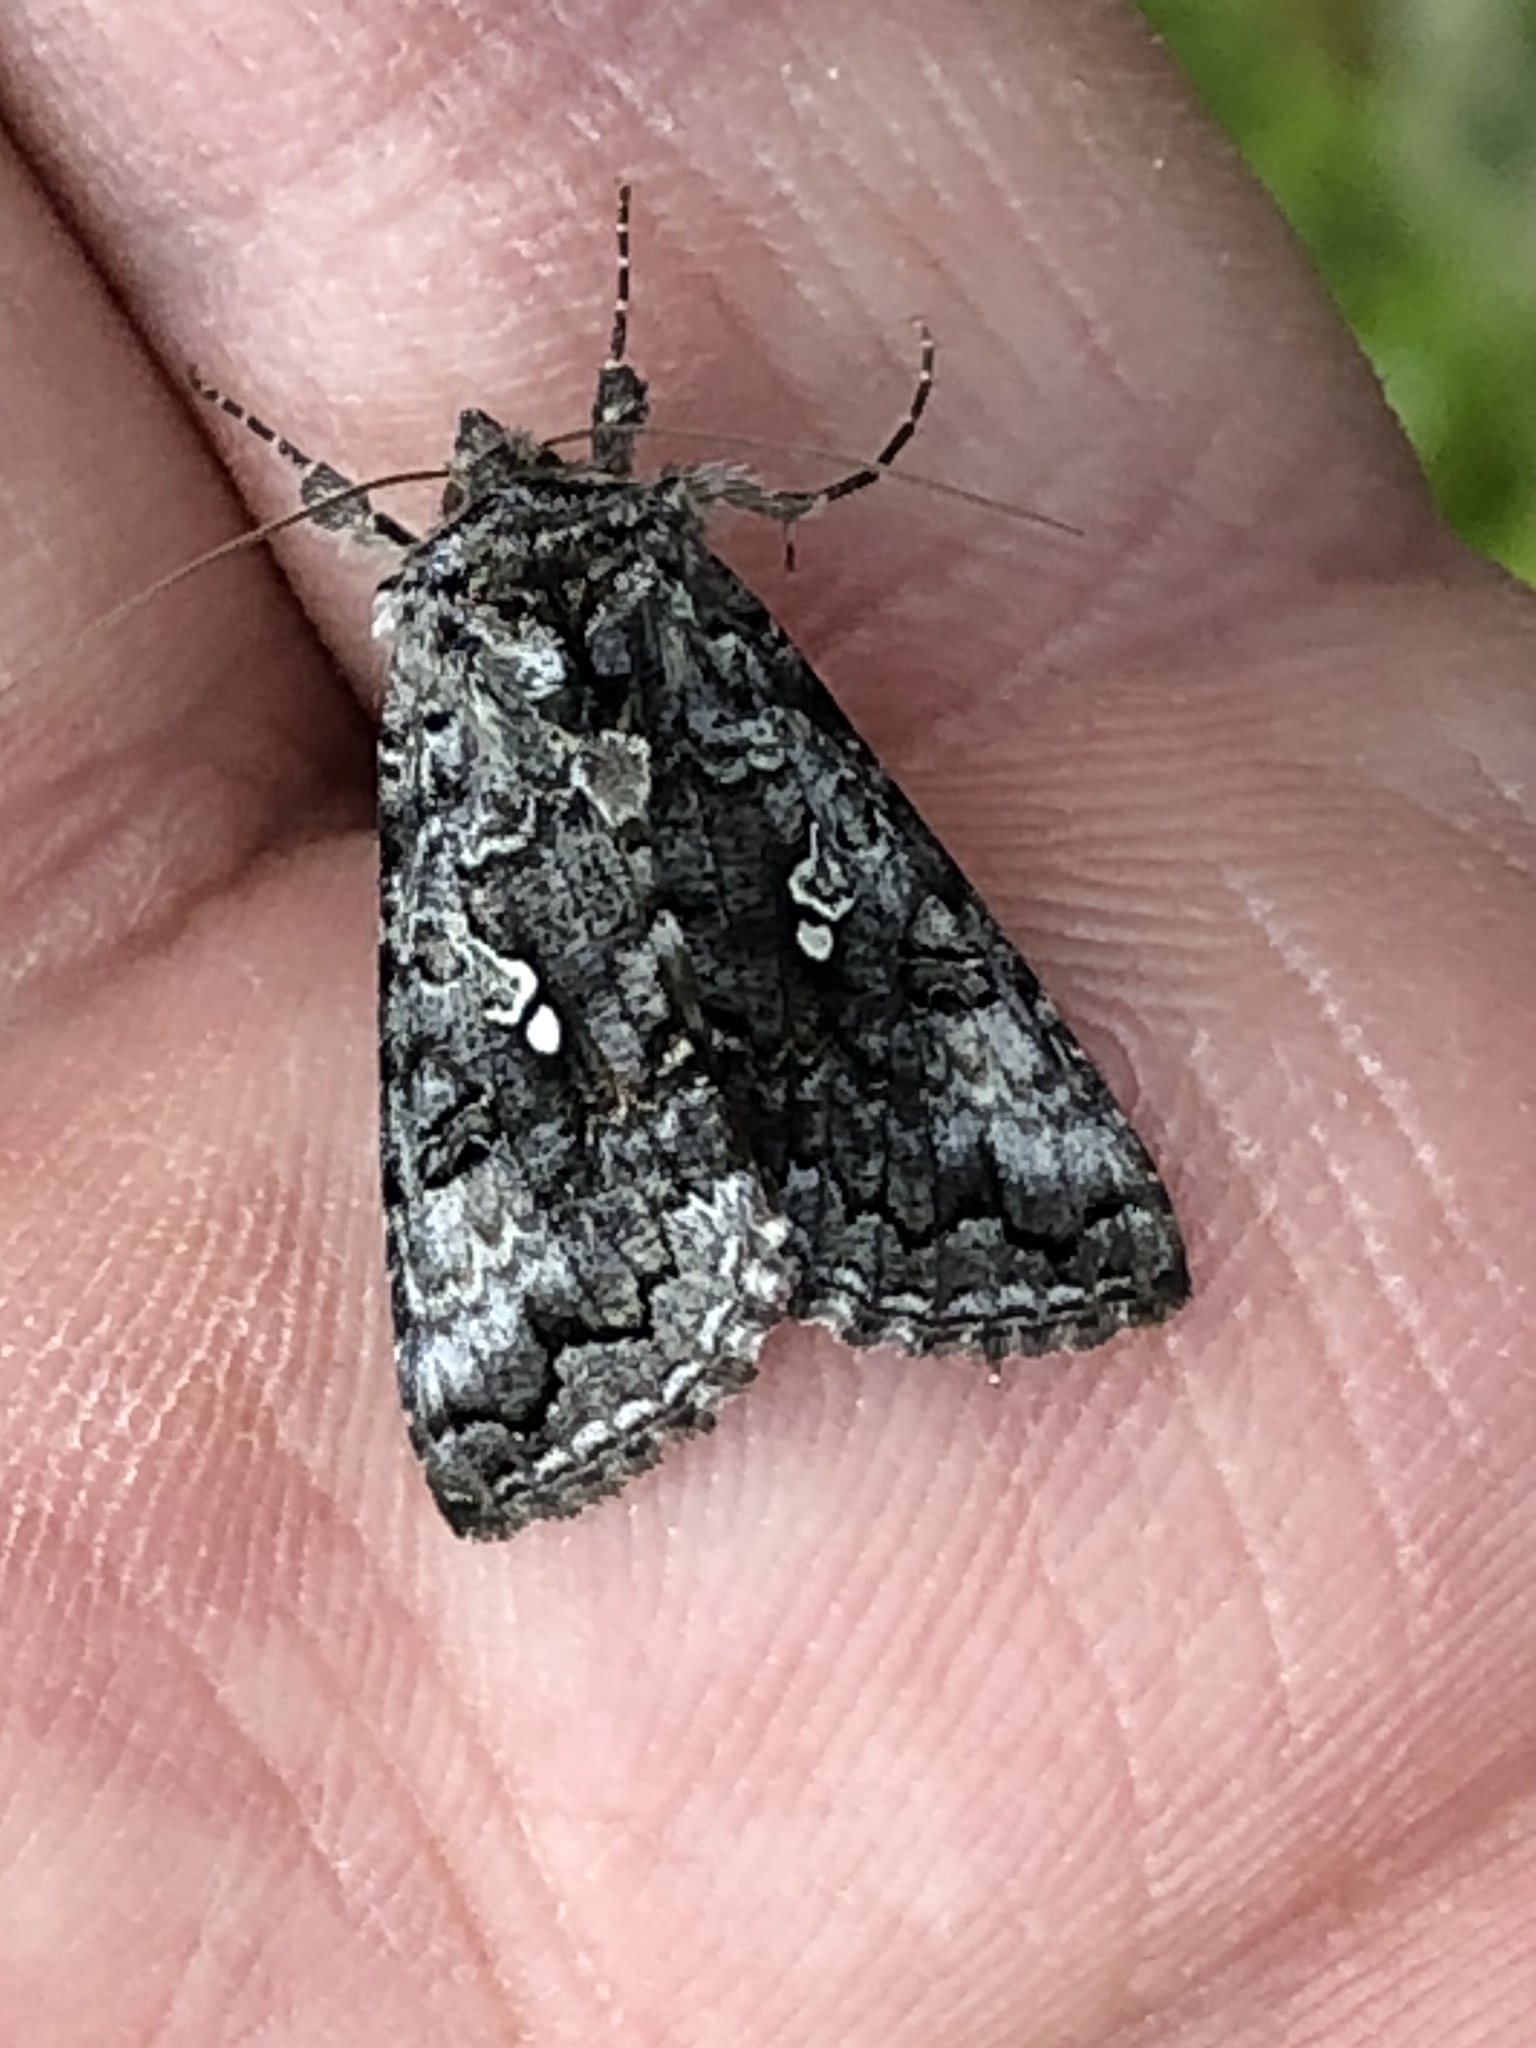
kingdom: Animalia
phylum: Arthropoda
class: Insecta
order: Lepidoptera
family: Noctuidae
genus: Syngrapha
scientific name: Syngrapha altera
